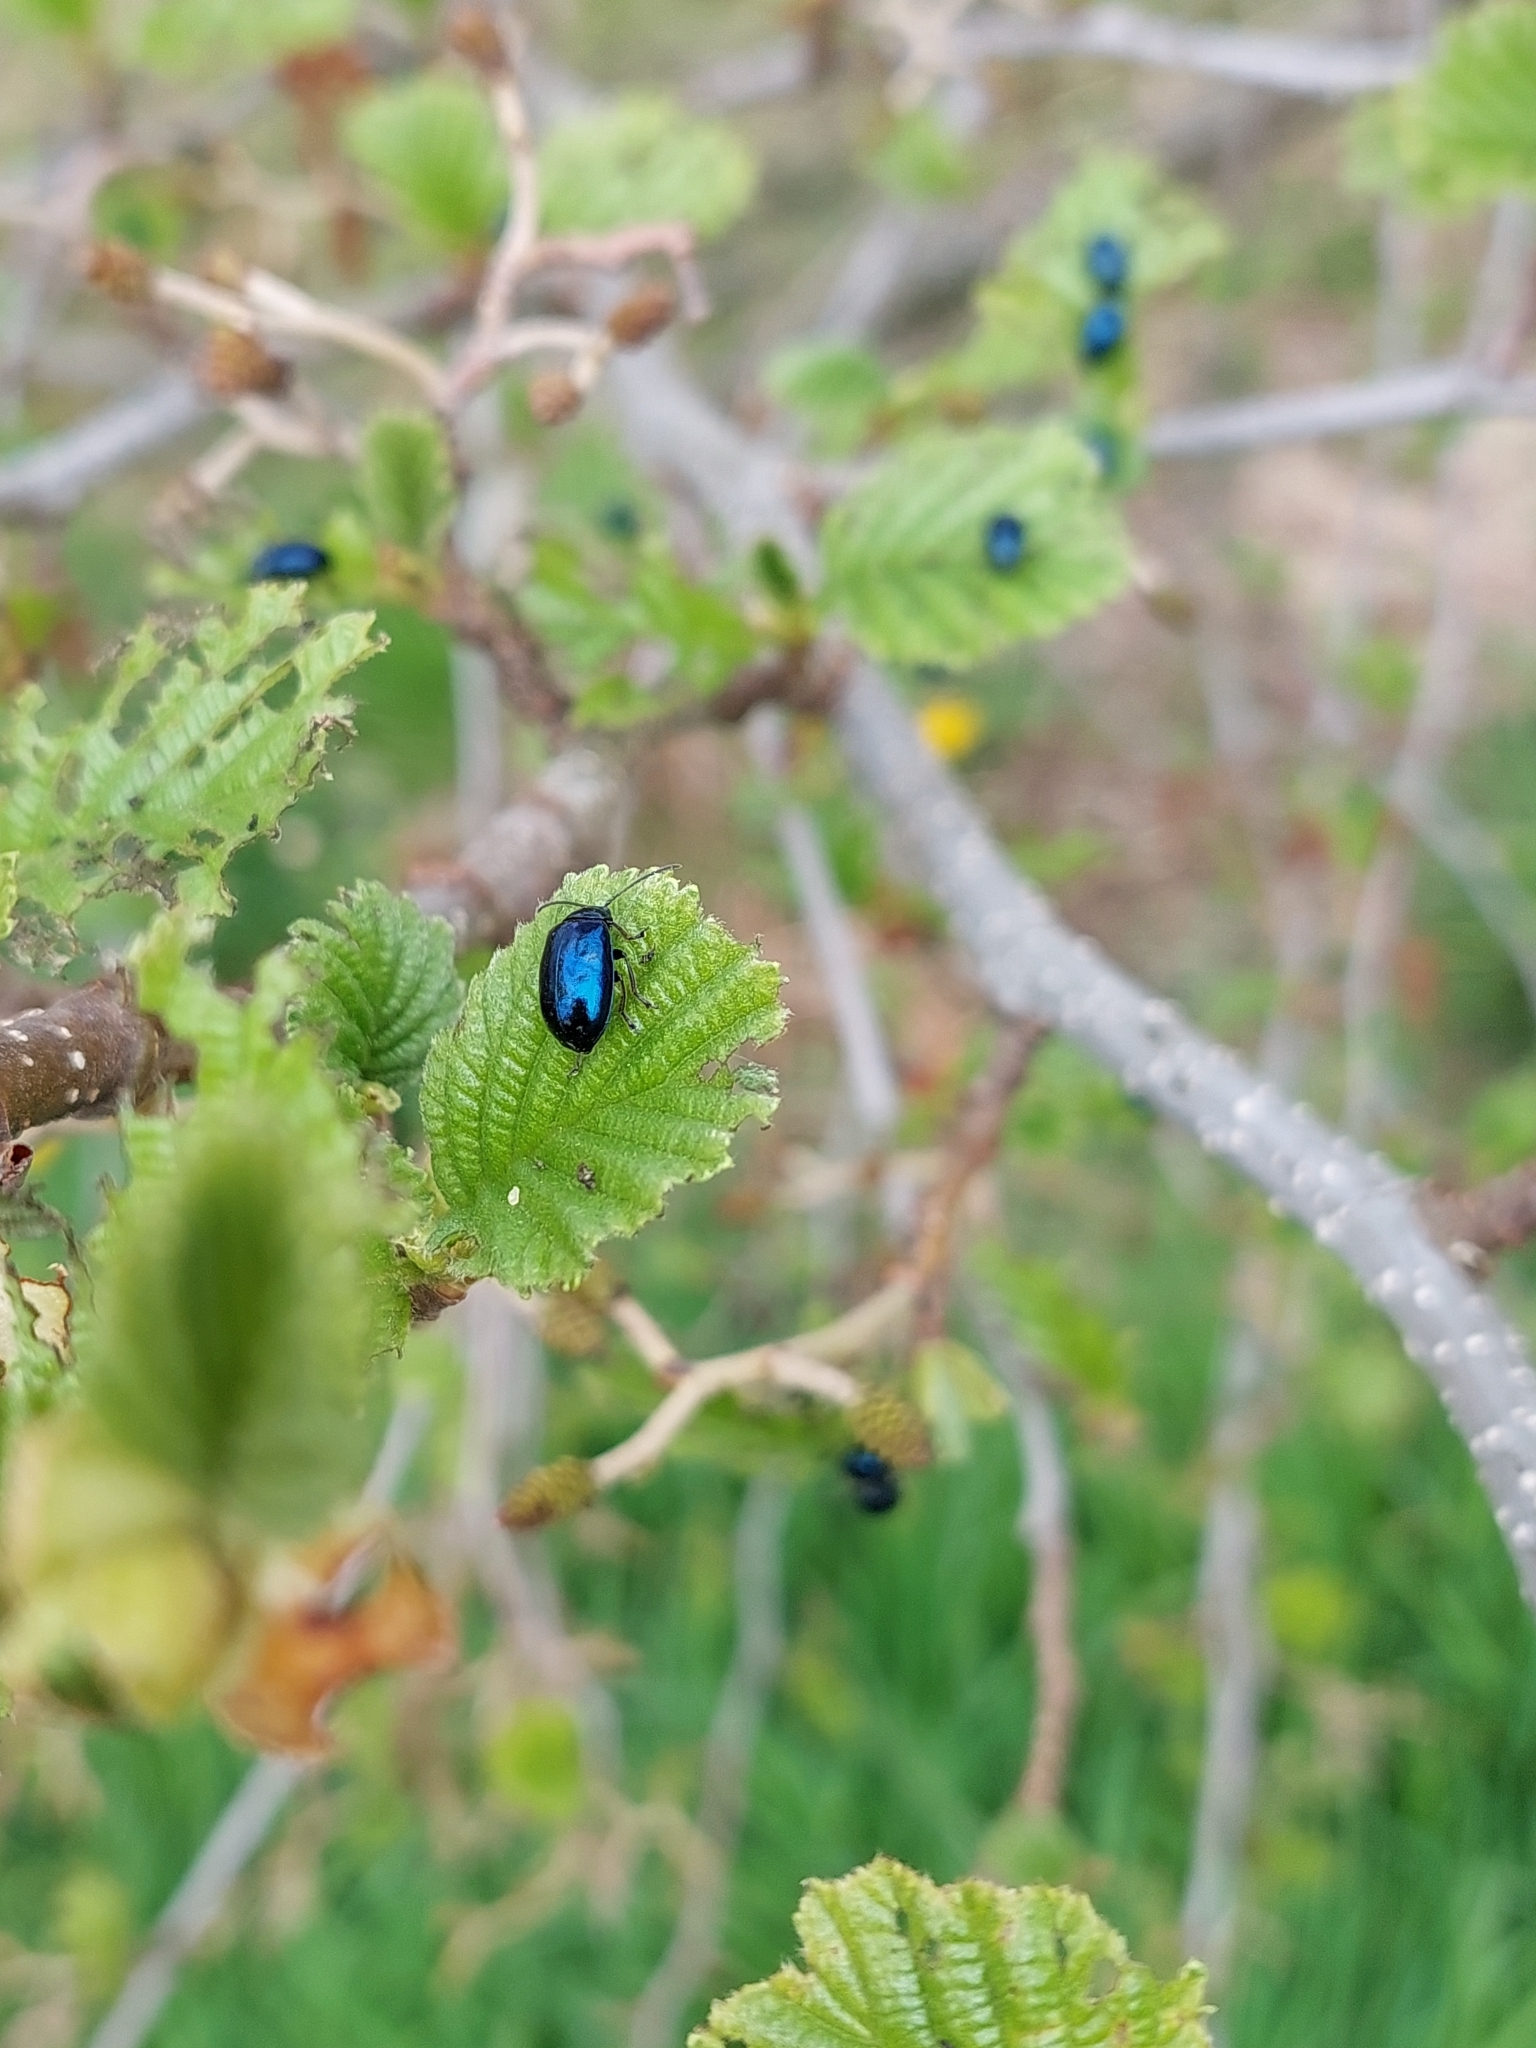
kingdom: Animalia
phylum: Arthropoda
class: Insecta
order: Coleoptera
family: Chrysomelidae
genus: Agelastica
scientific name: Agelastica alni
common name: Alder leaf beetle
